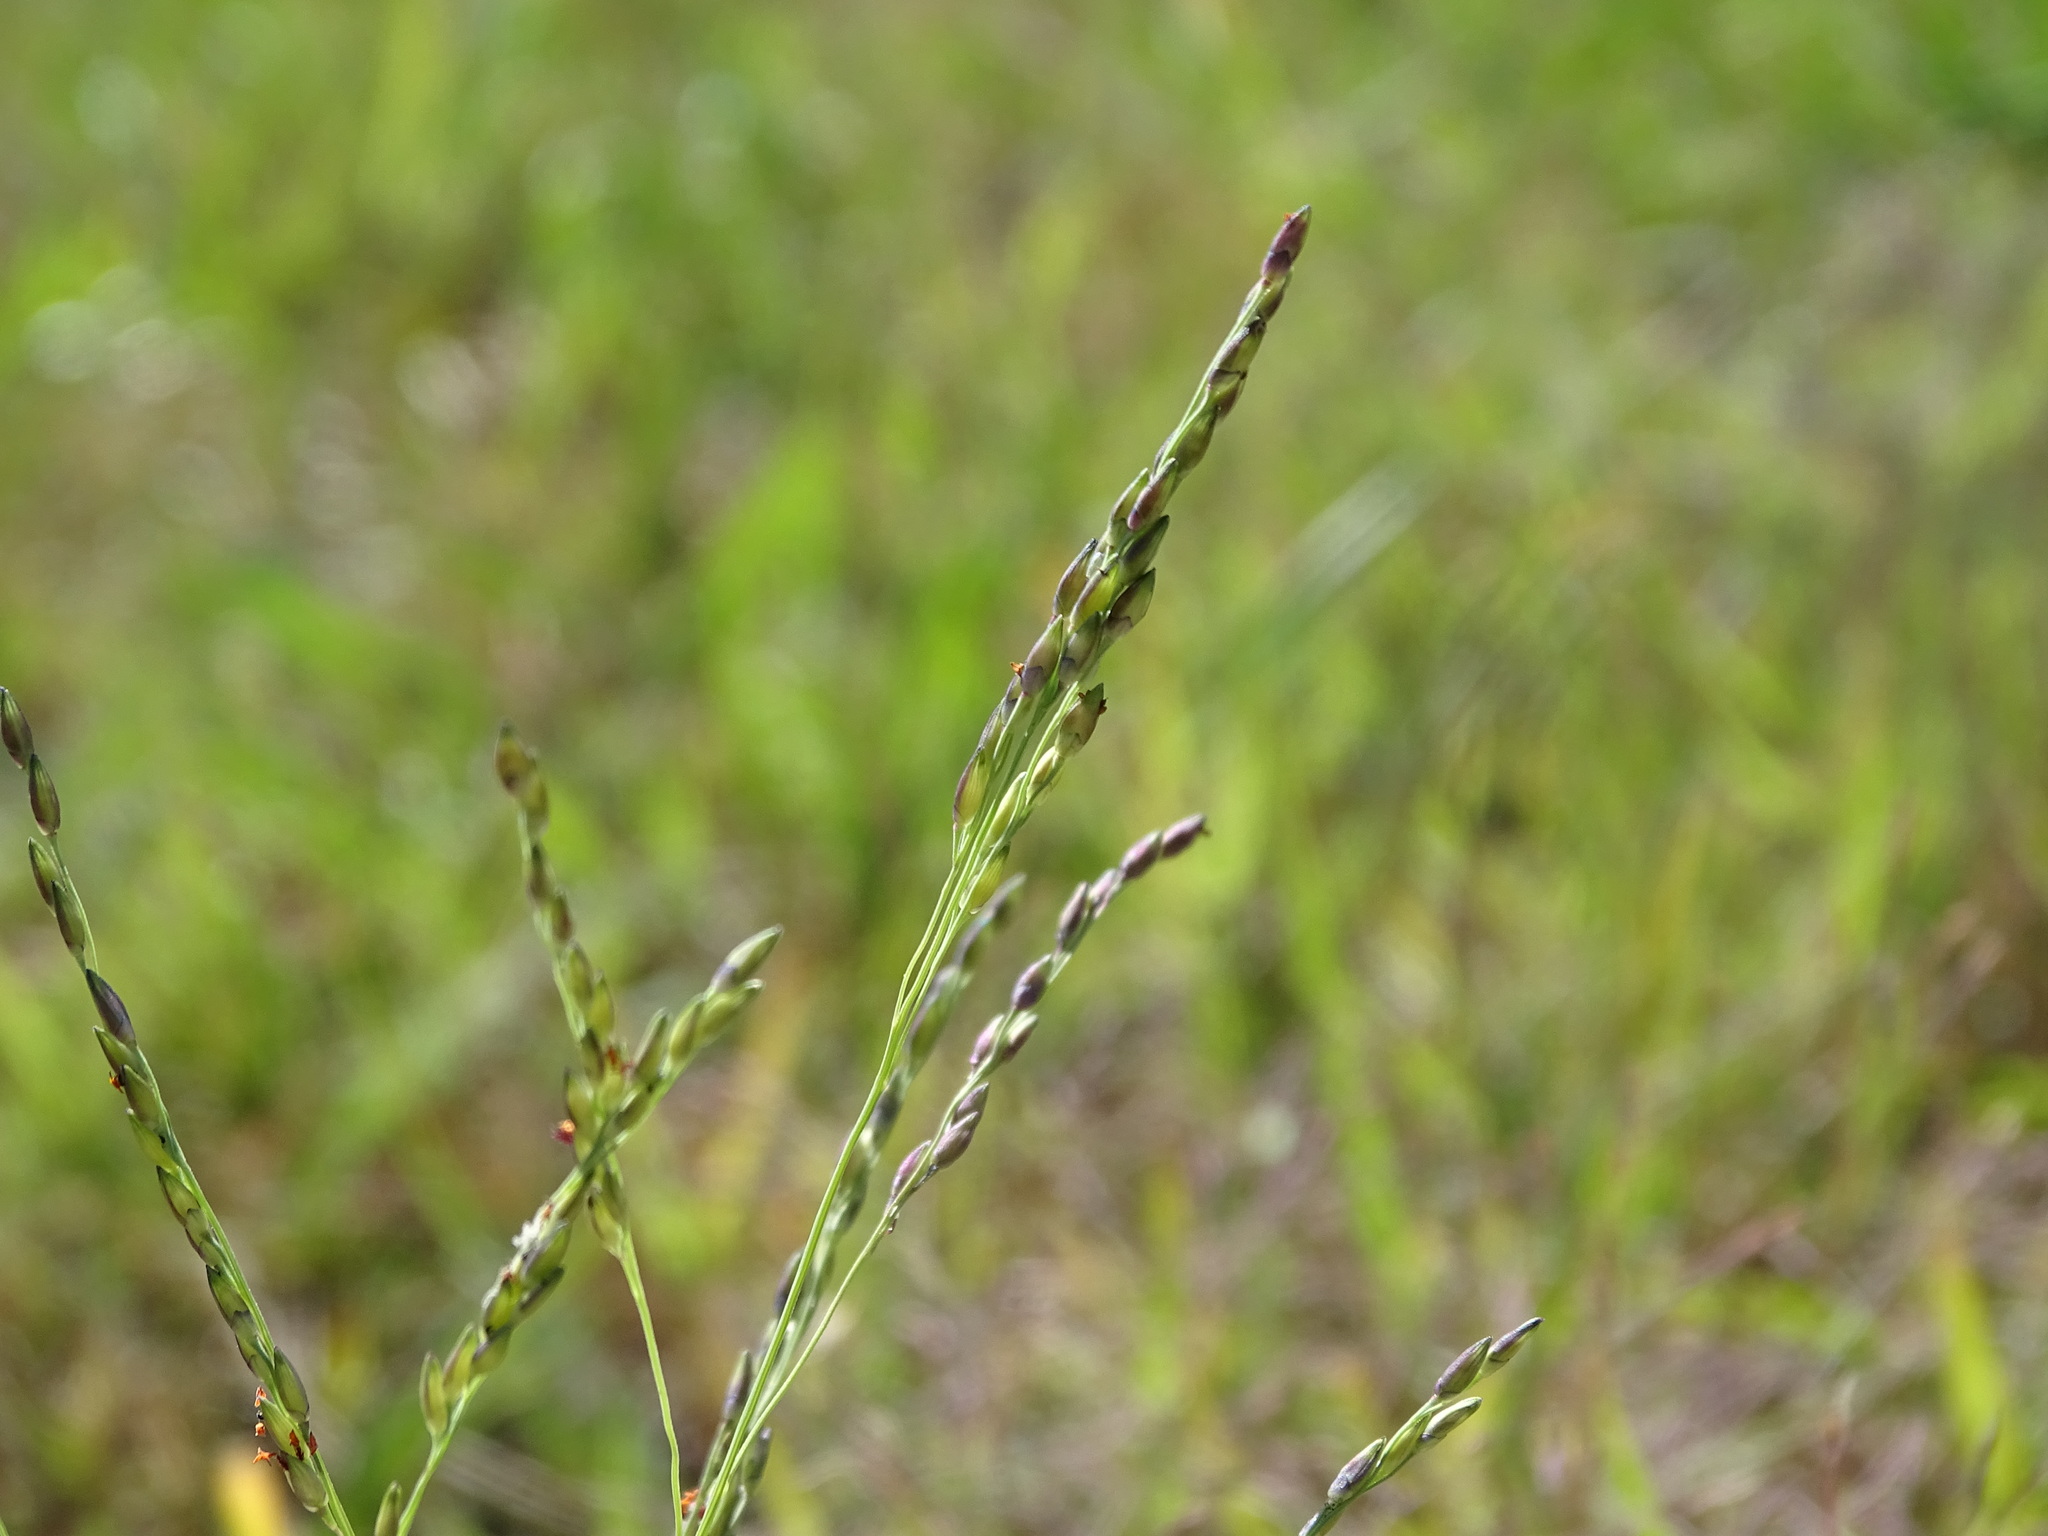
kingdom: Plantae
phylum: Tracheophyta
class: Liliopsida
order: Poales
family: Poaceae
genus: Panicum
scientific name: Panicum dichotomiflorum
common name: Autumn millet
